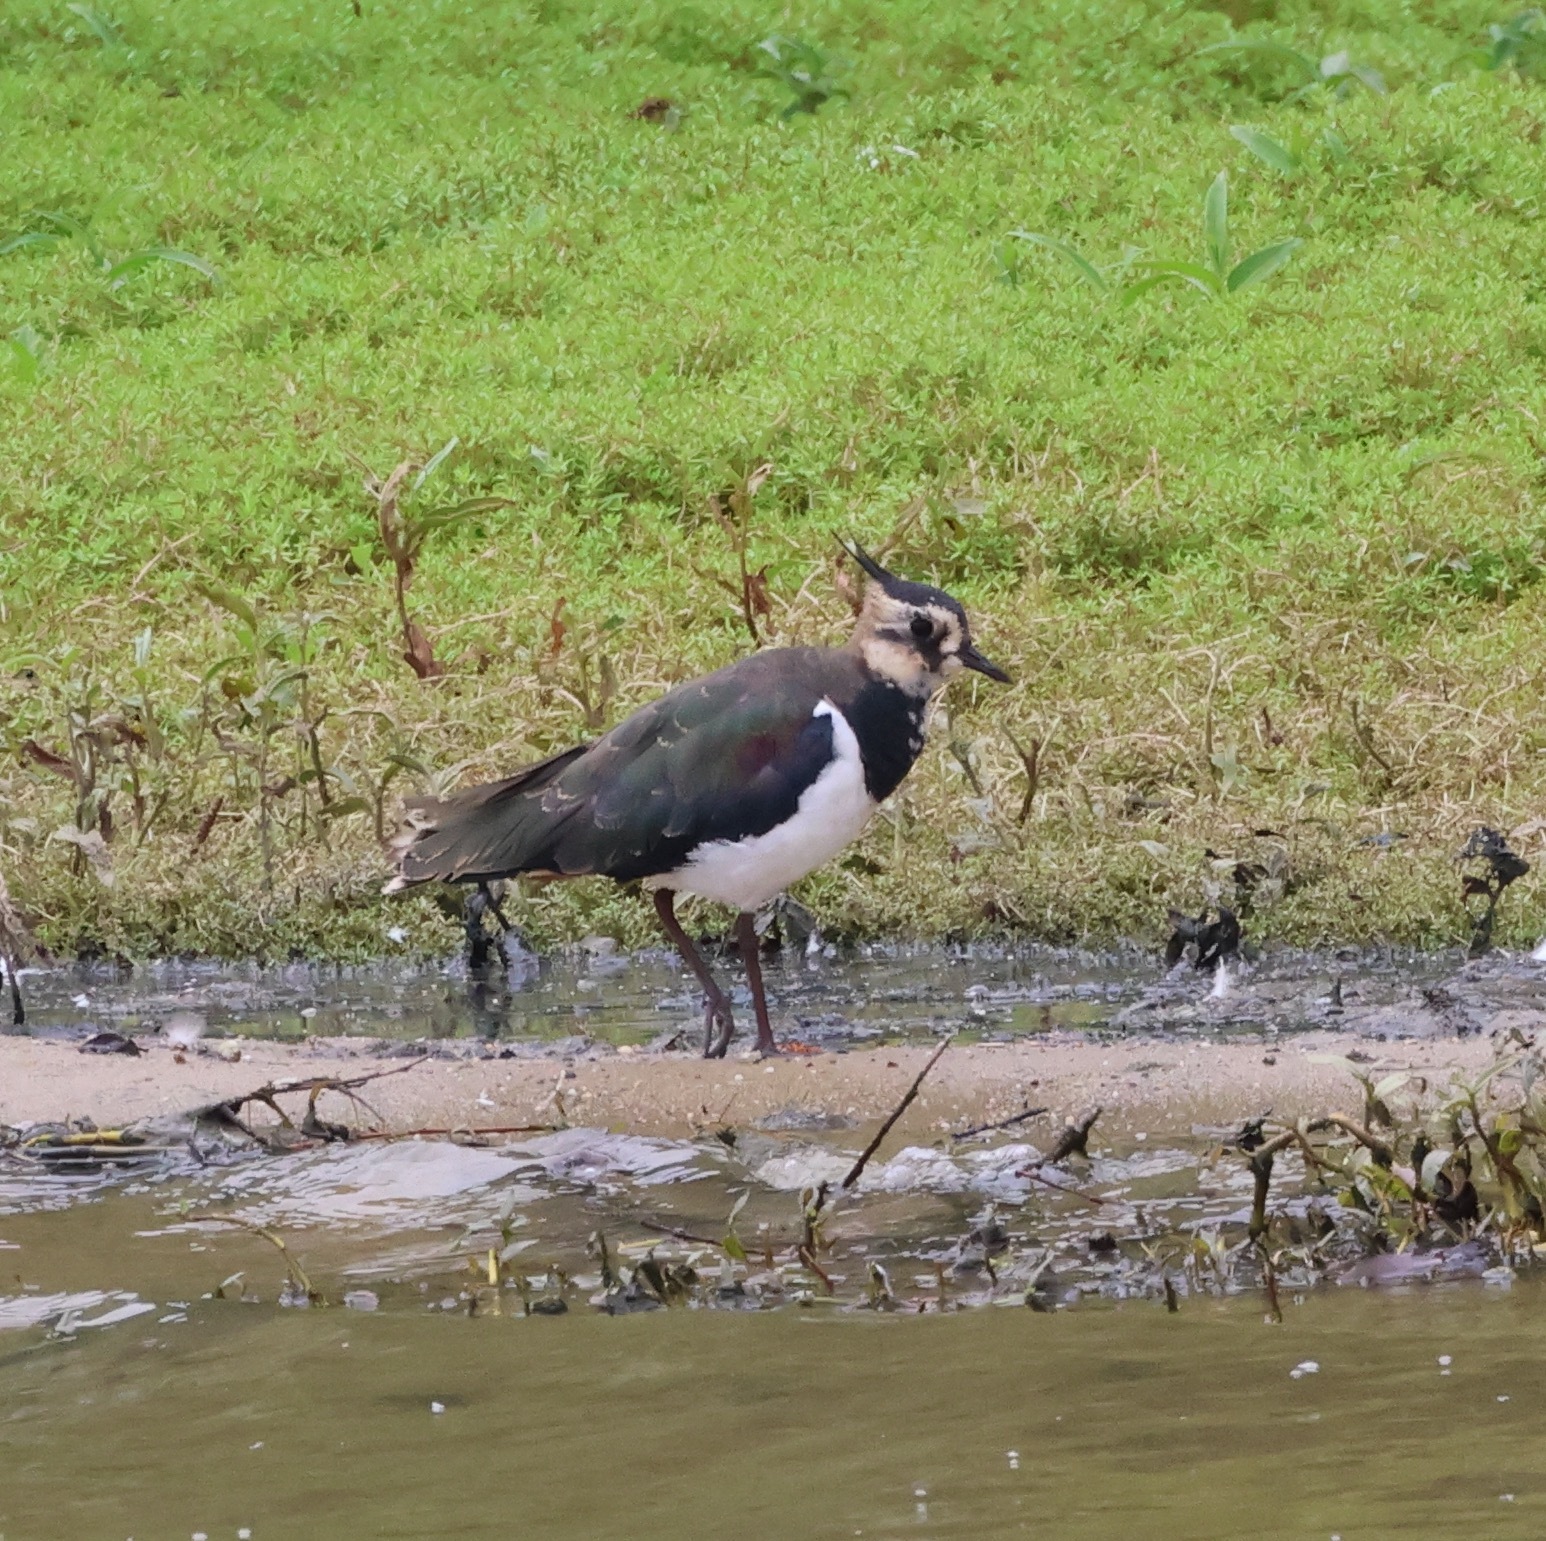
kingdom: Animalia
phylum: Chordata
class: Aves
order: Charadriiformes
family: Charadriidae
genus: Vanellus
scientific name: Vanellus vanellus
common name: Northern lapwing
